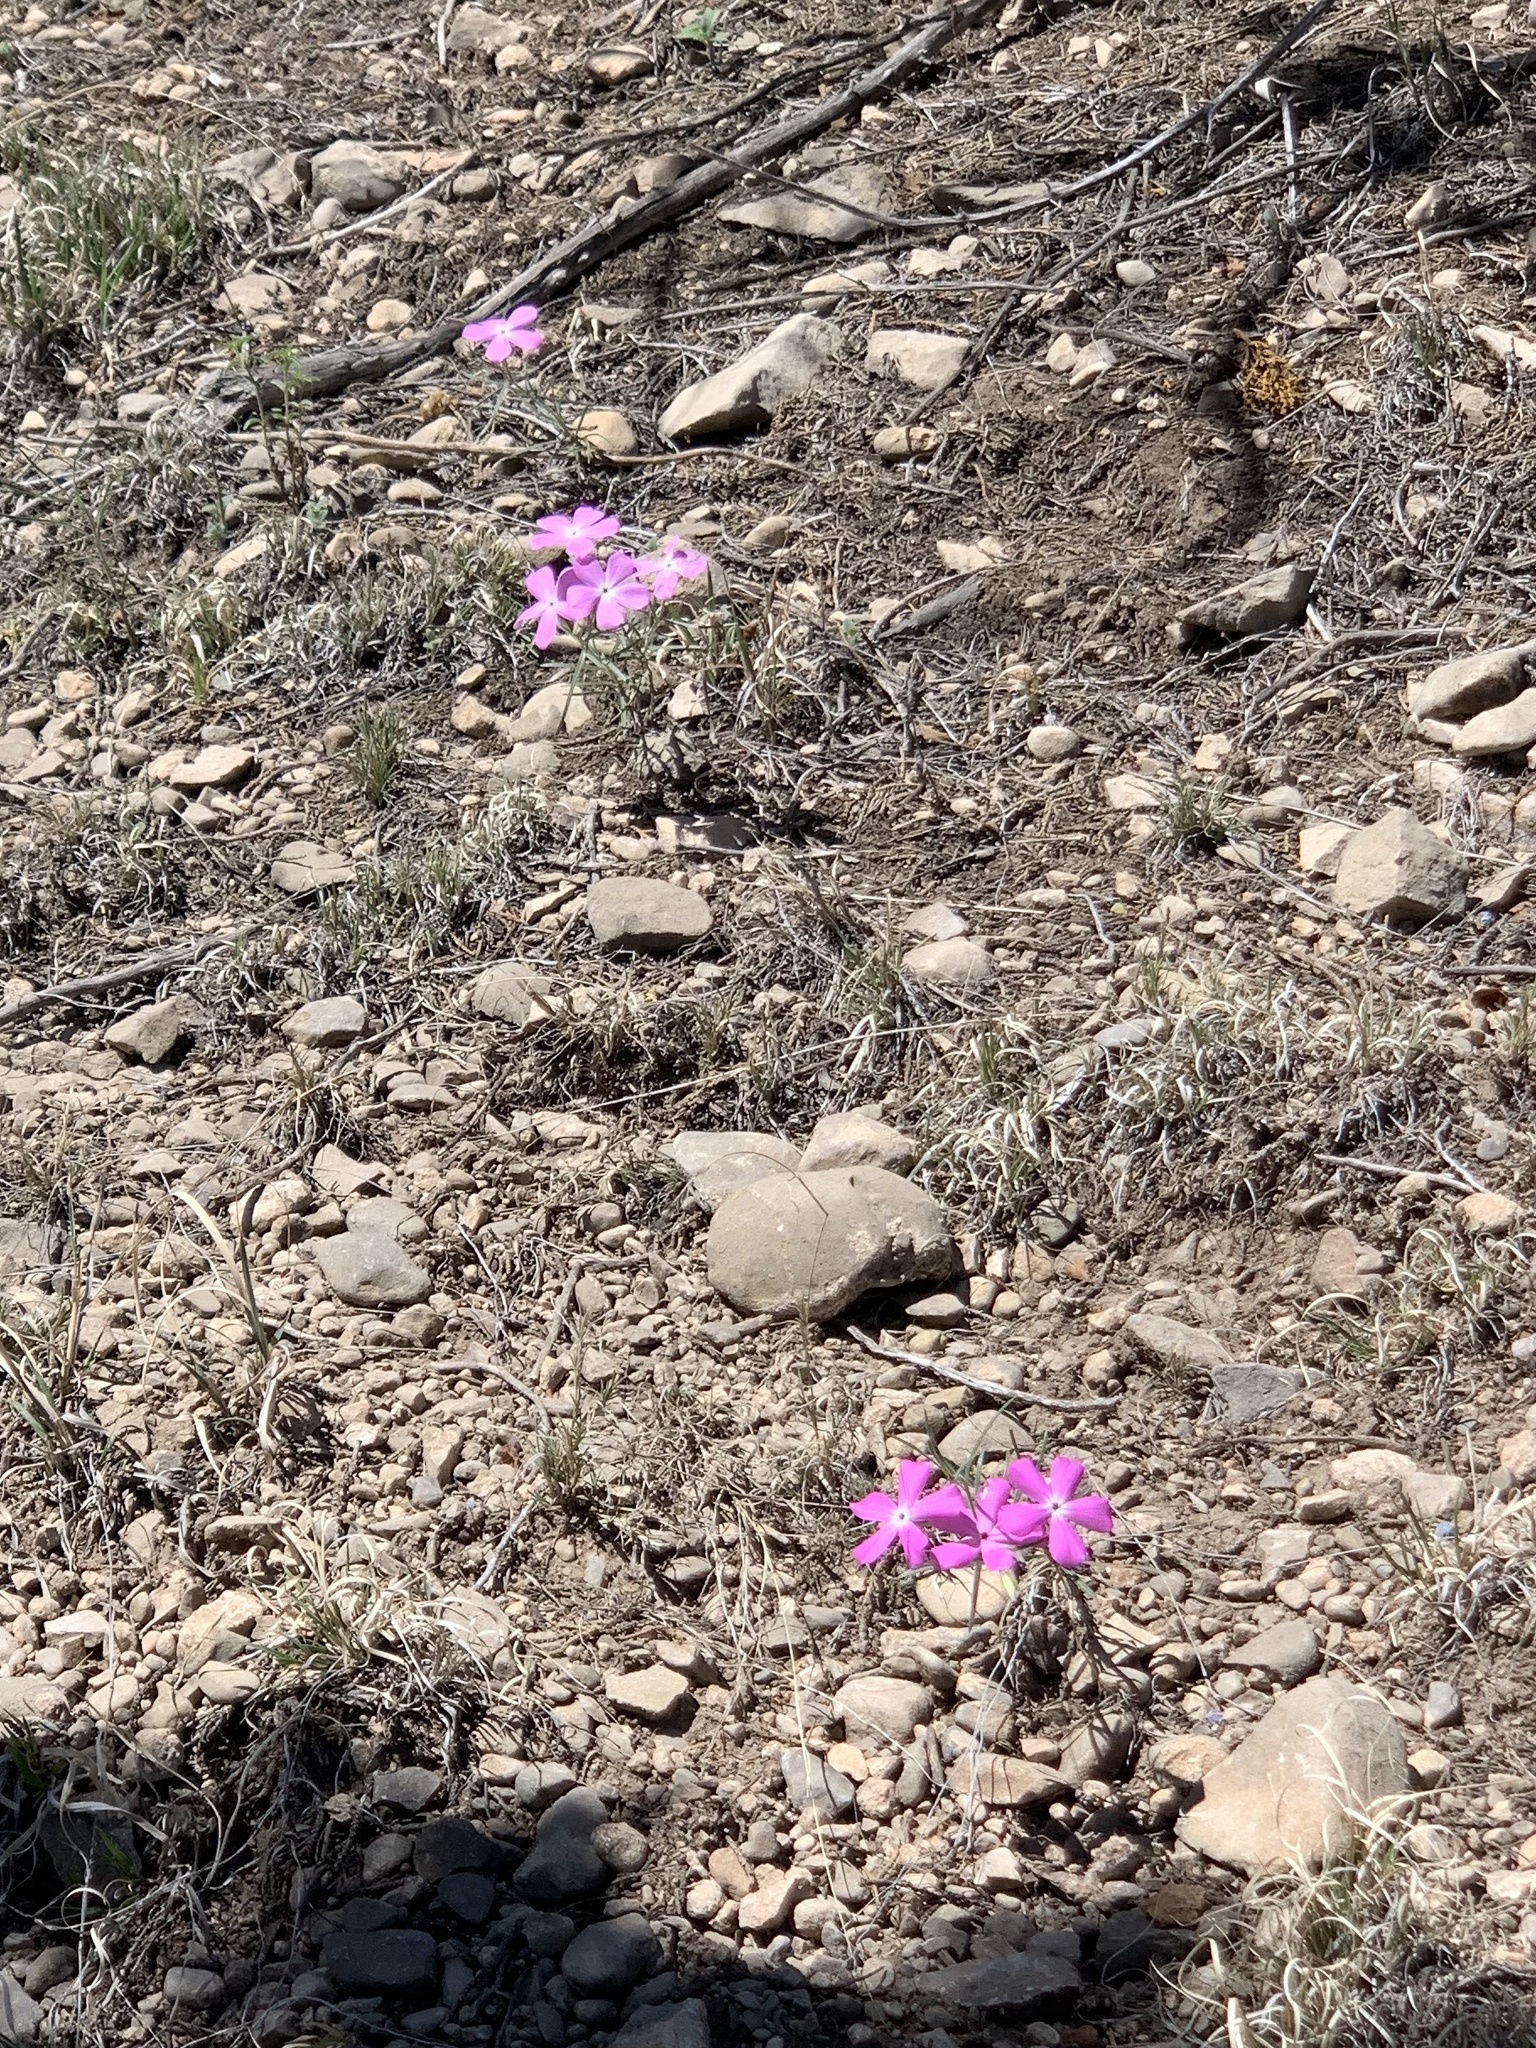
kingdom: Plantae
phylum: Tracheophyta
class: Magnoliopsida
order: Ericales
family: Polemoniaceae
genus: Phlox
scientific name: Phlox nana
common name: Santa fe phlox
